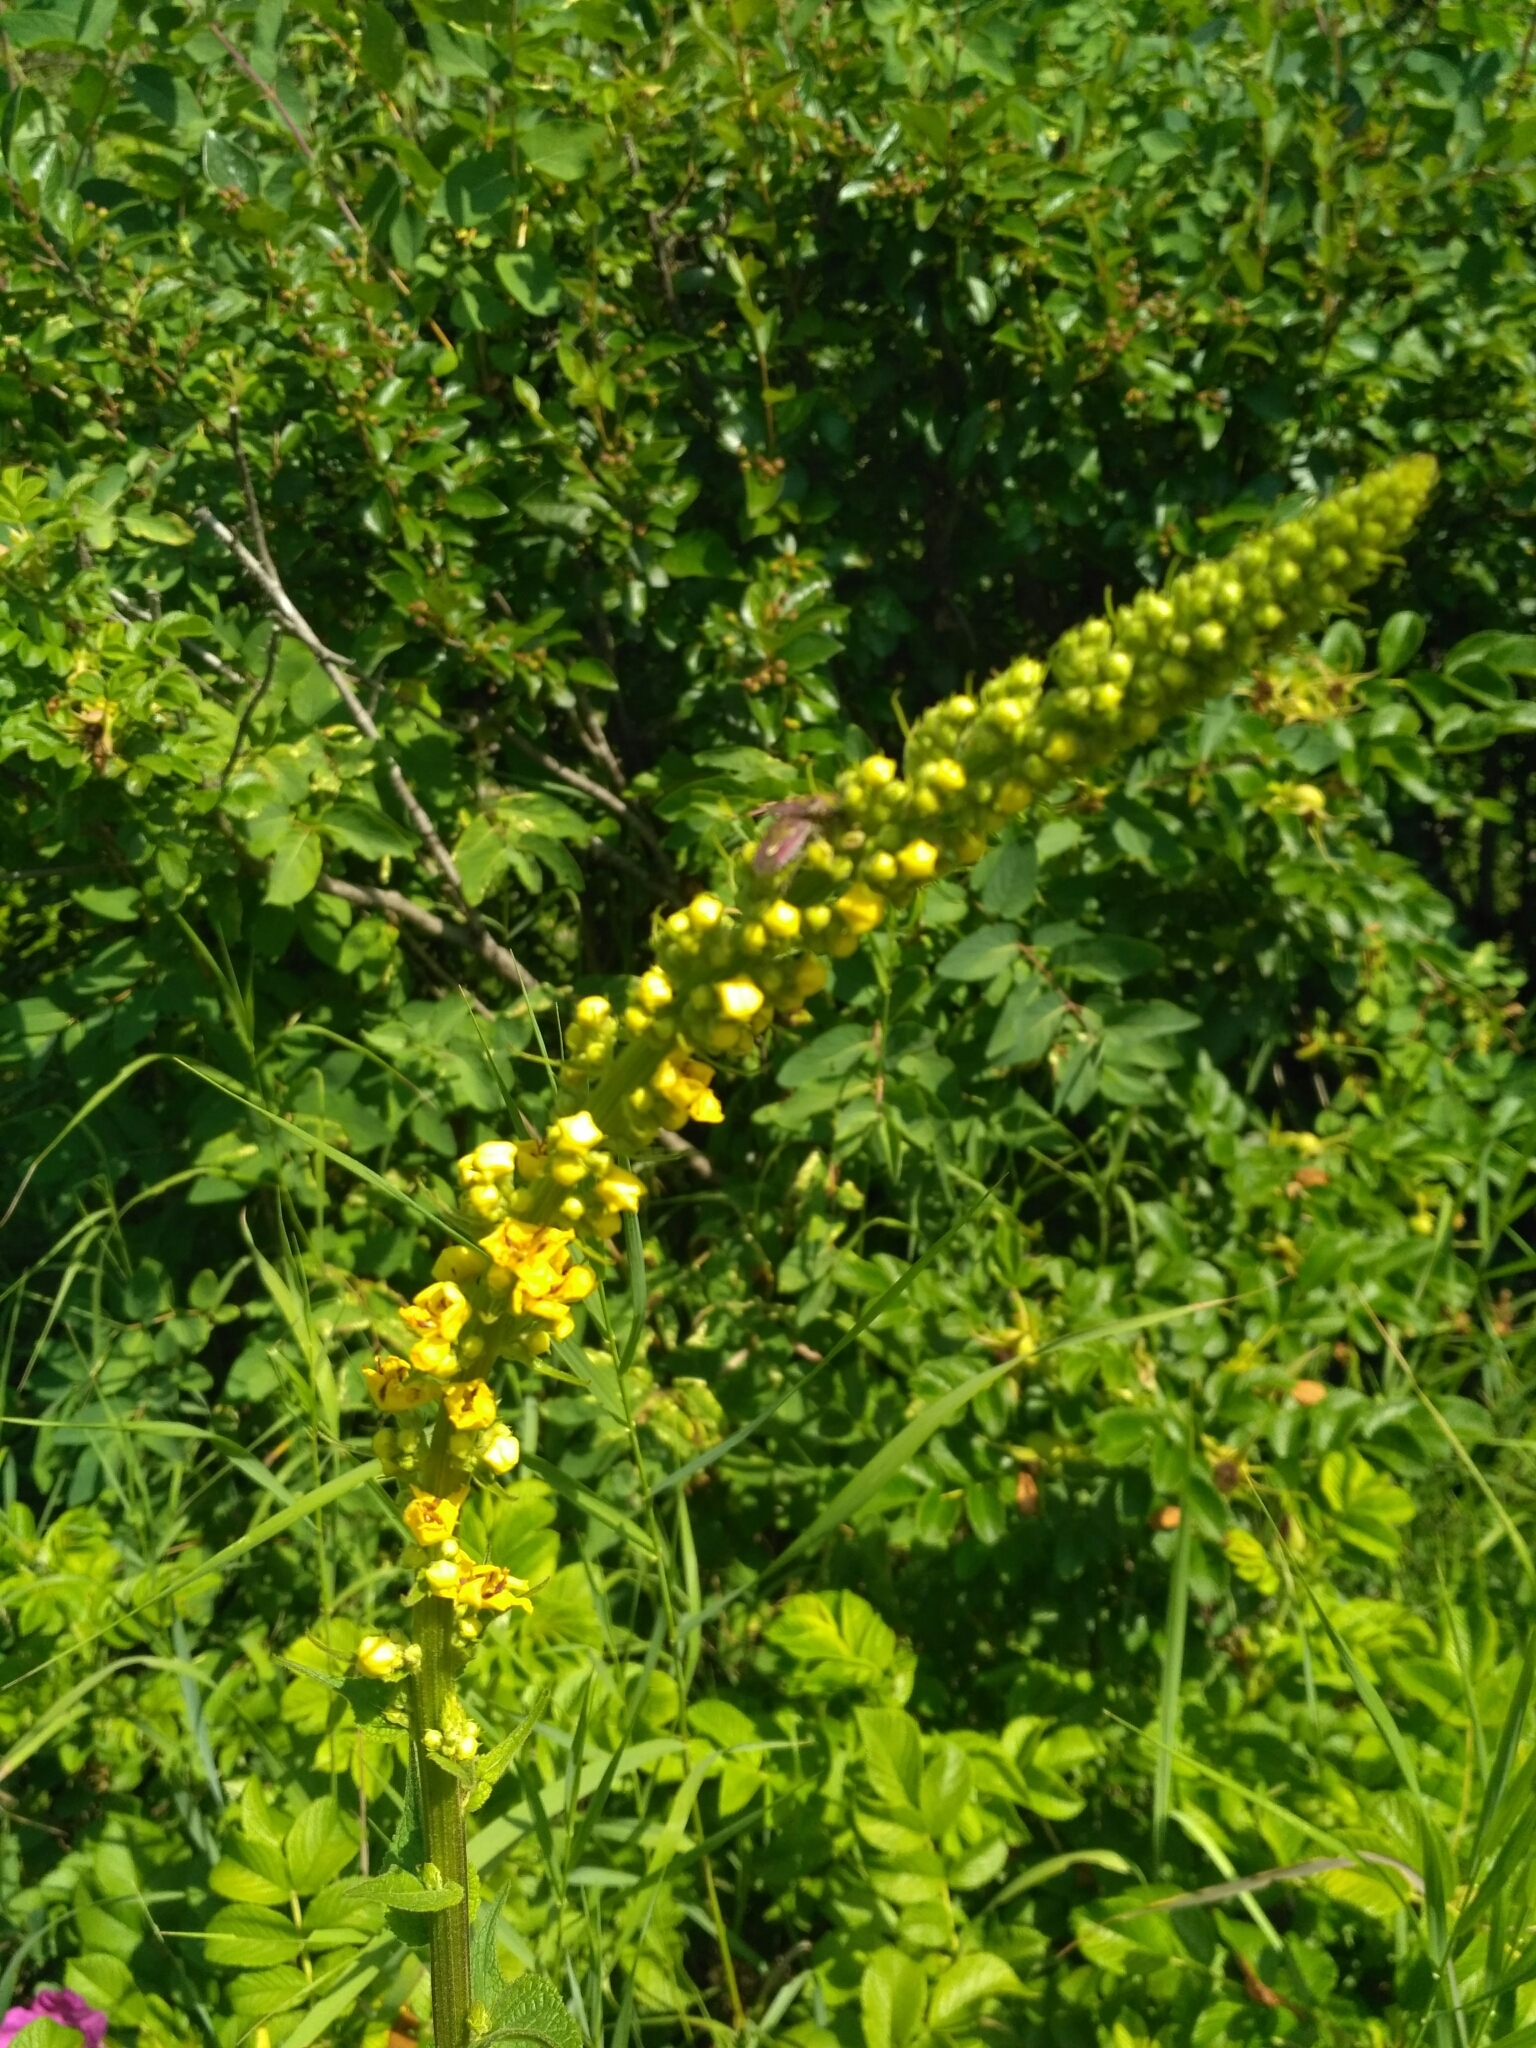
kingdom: Plantae
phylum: Tracheophyta
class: Magnoliopsida
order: Lamiales
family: Scrophulariaceae
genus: Verbascum
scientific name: Verbascum nigrum
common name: Dark mullein
